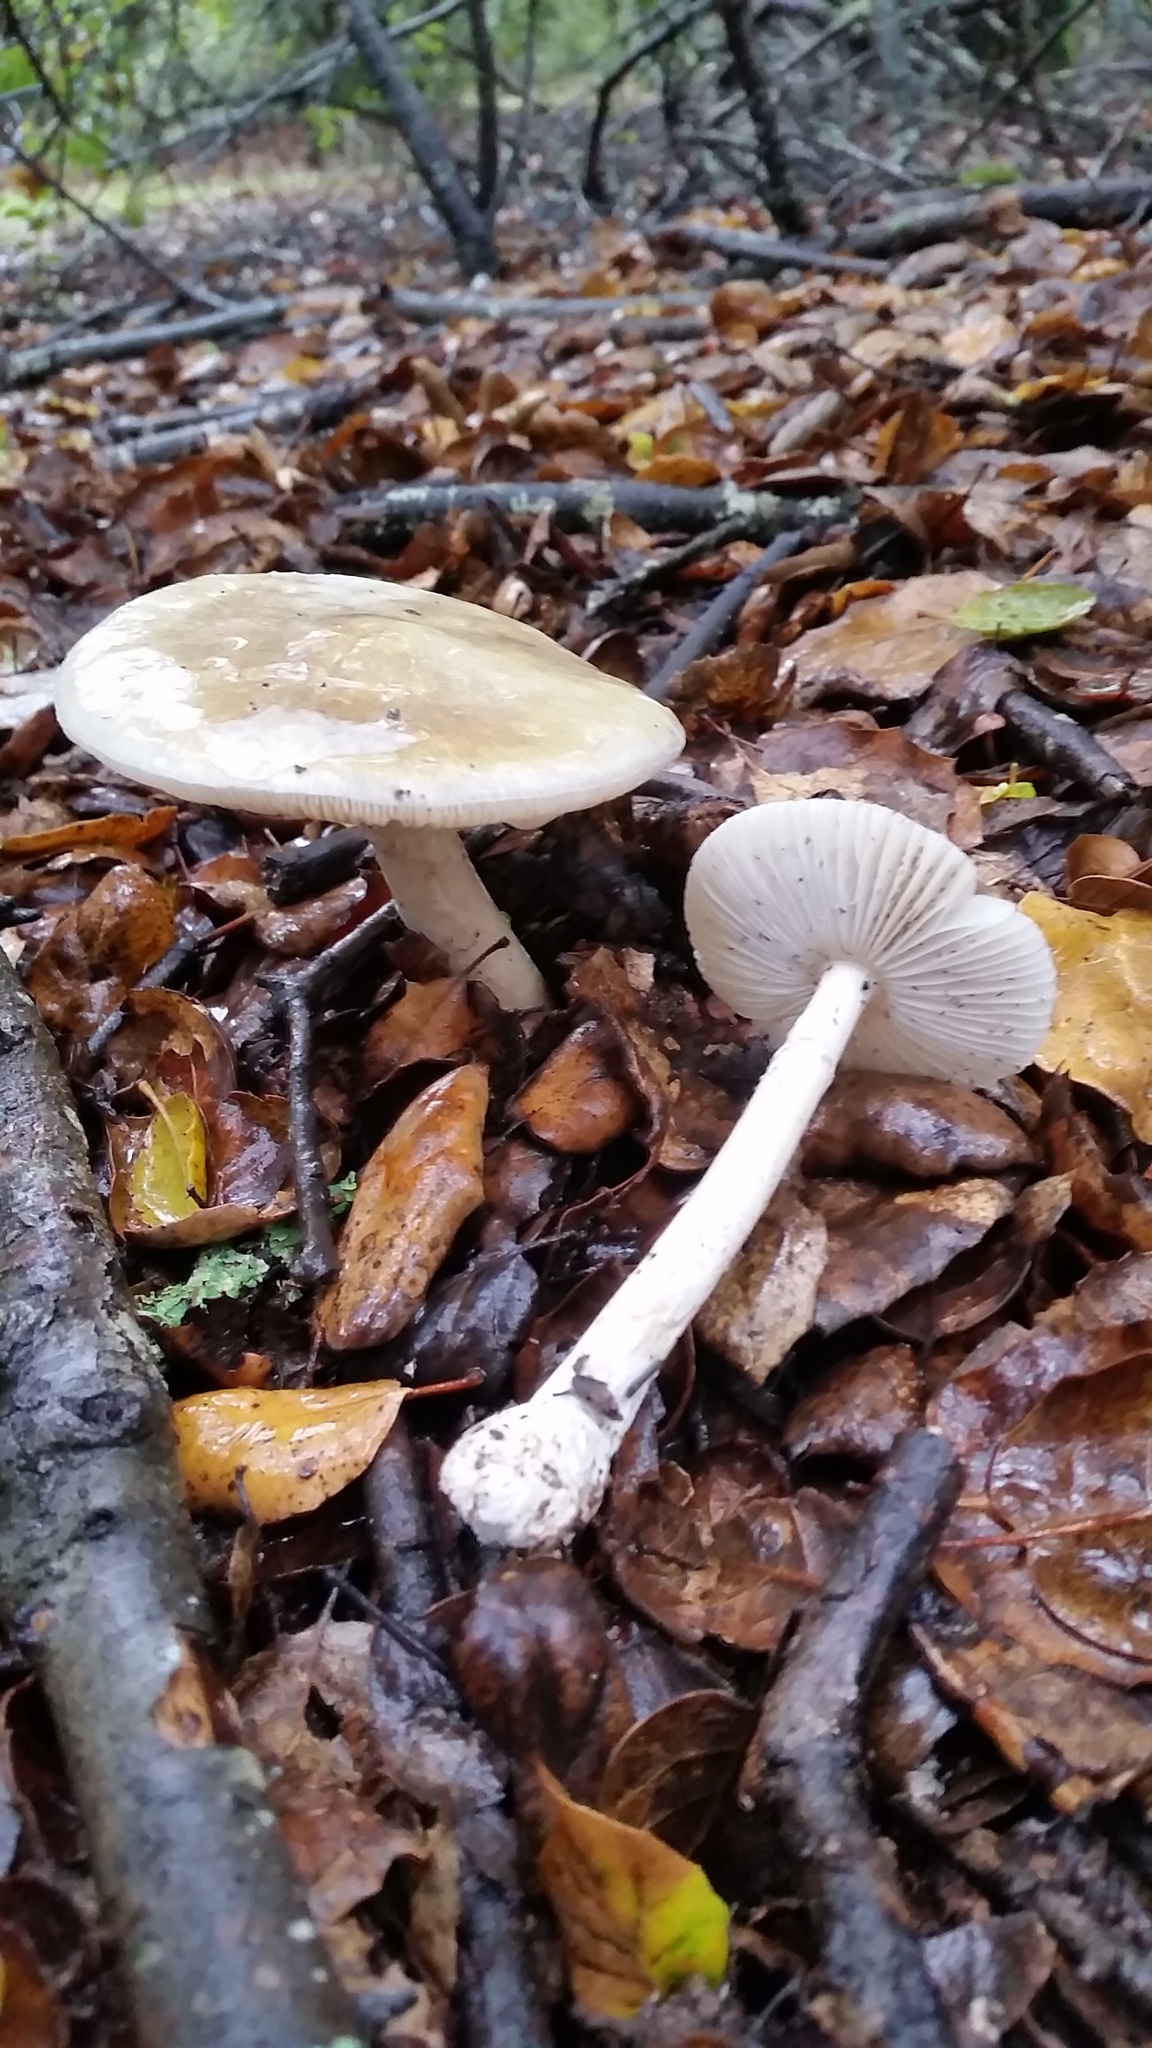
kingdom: Fungi
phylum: Basidiomycota
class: Agaricomycetes
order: Agaricales
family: Amanitaceae
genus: Amanita
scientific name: Amanita phalloides
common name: Death cap
